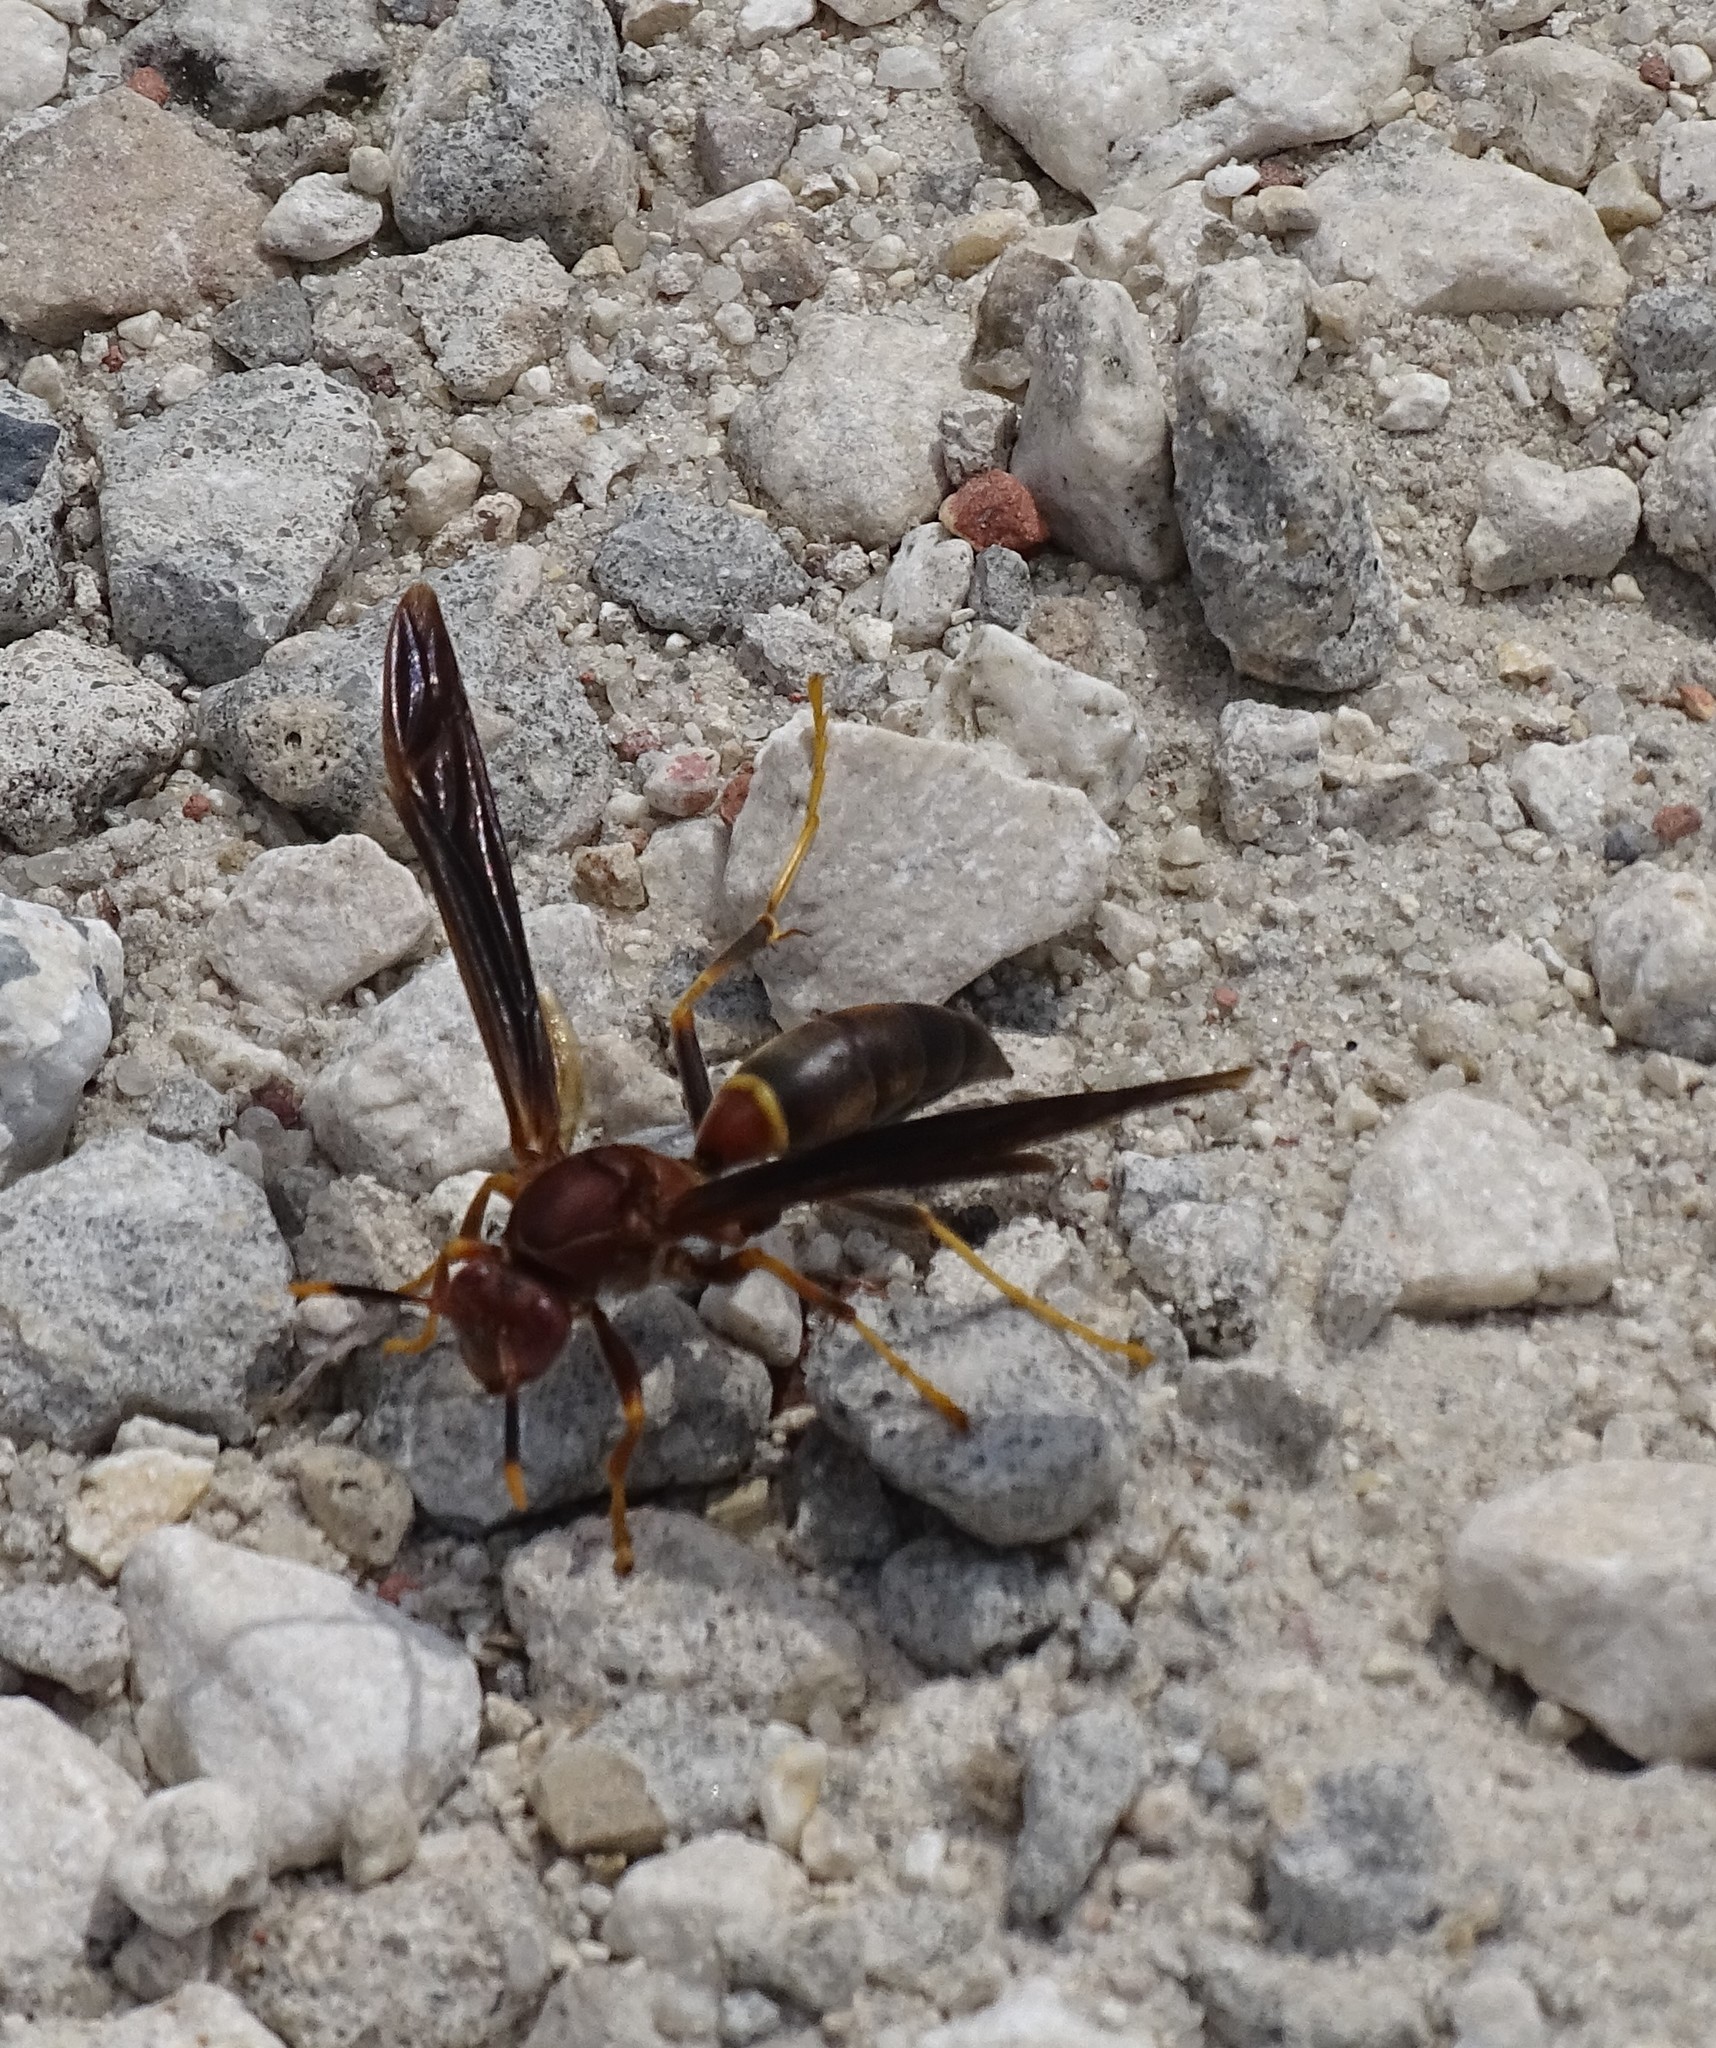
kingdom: Animalia
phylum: Arthropoda
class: Insecta
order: Hymenoptera
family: Eumenidae
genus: Polistes
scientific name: Polistes annularis
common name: Ringed paper wasp
